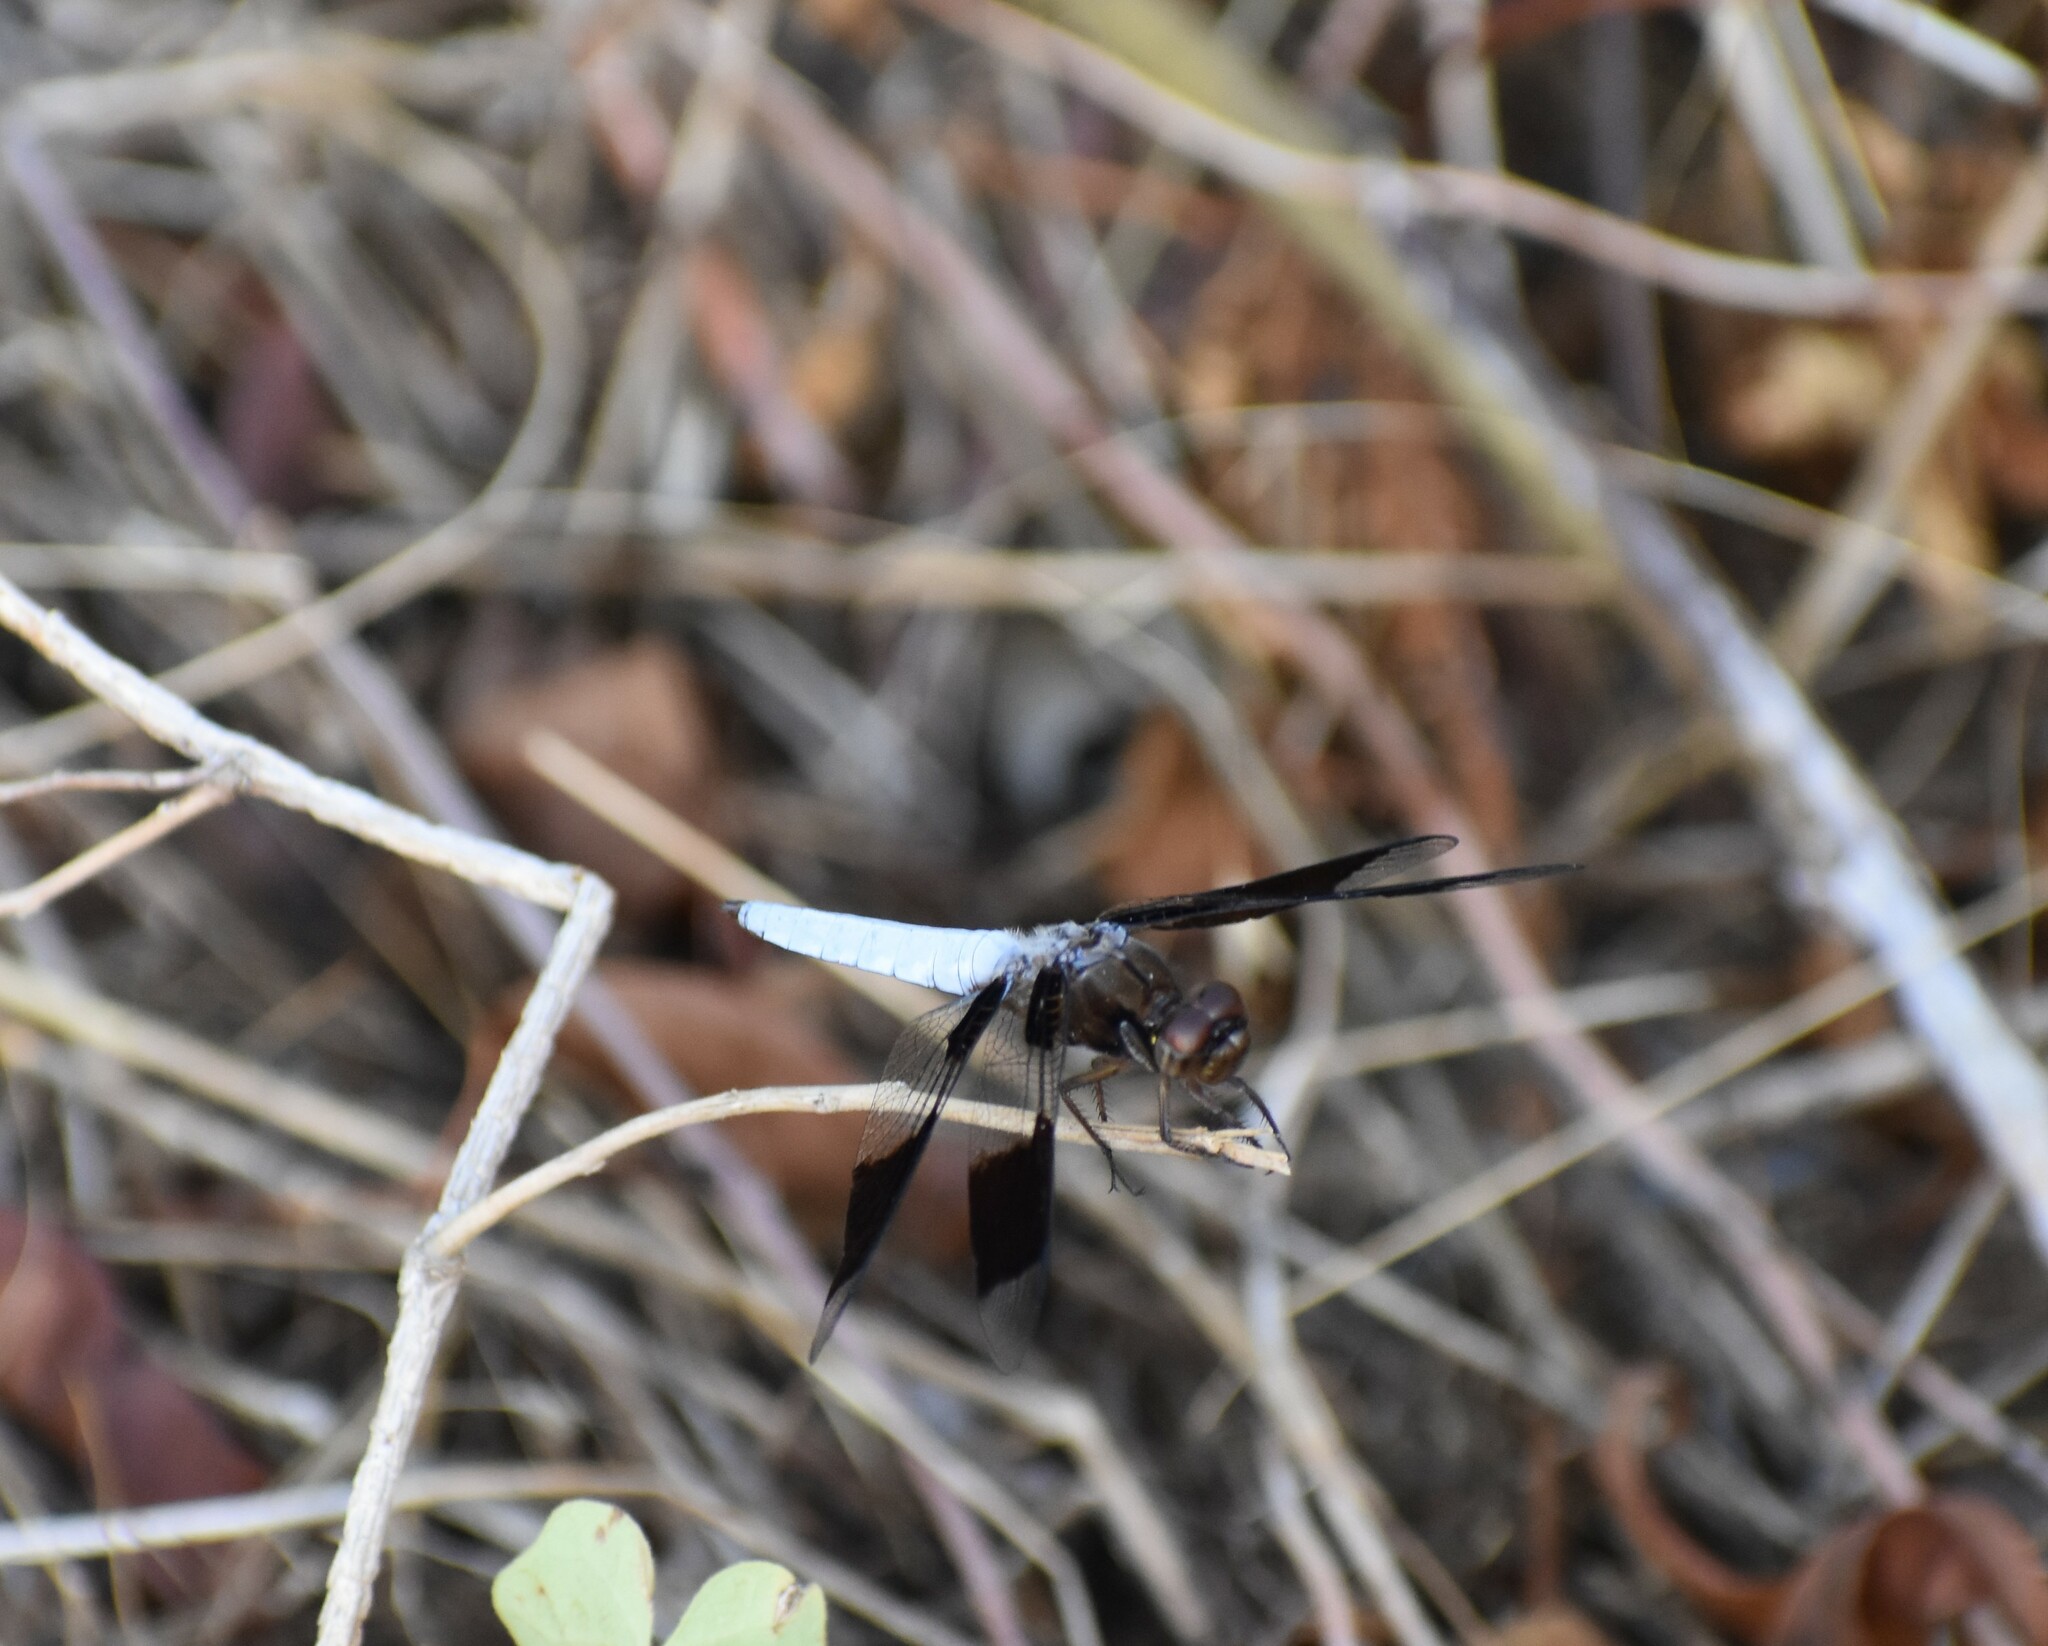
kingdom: Animalia
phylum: Arthropoda
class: Insecta
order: Odonata
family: Libellulidae
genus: Plathemis
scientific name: Plathemis lydia
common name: Common whitetail
